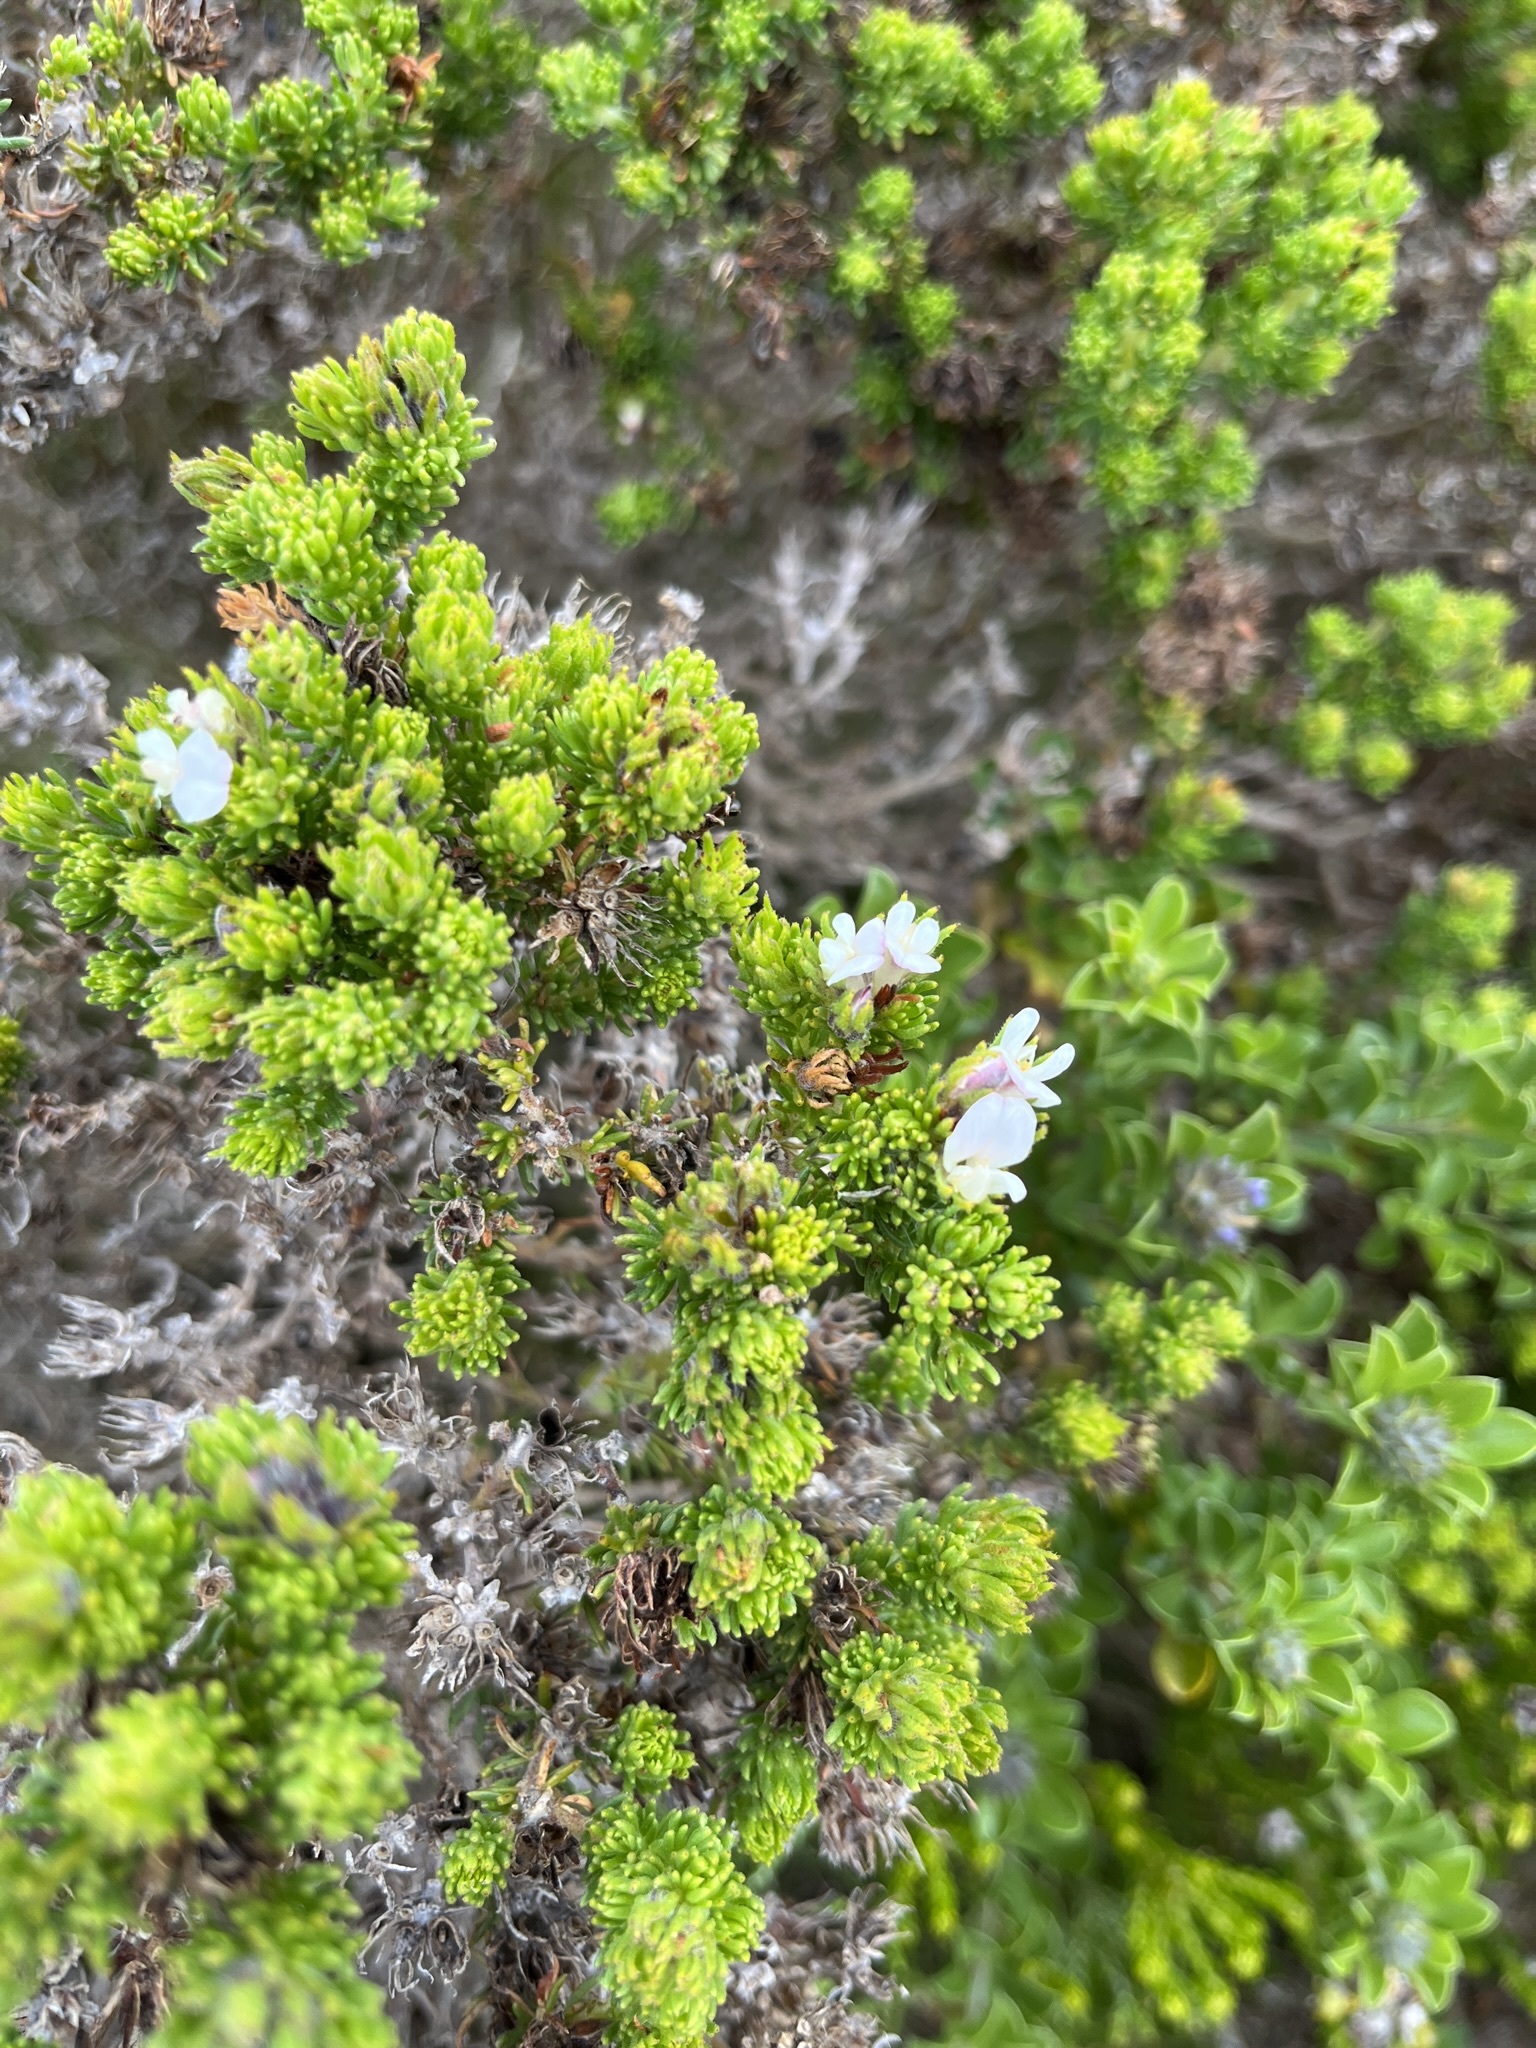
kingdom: Plantae
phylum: Tracheophyta
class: Magnoliopsida
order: Fabales
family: Fabaceae
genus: Aspalathus
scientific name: Aspalathus forbesii
